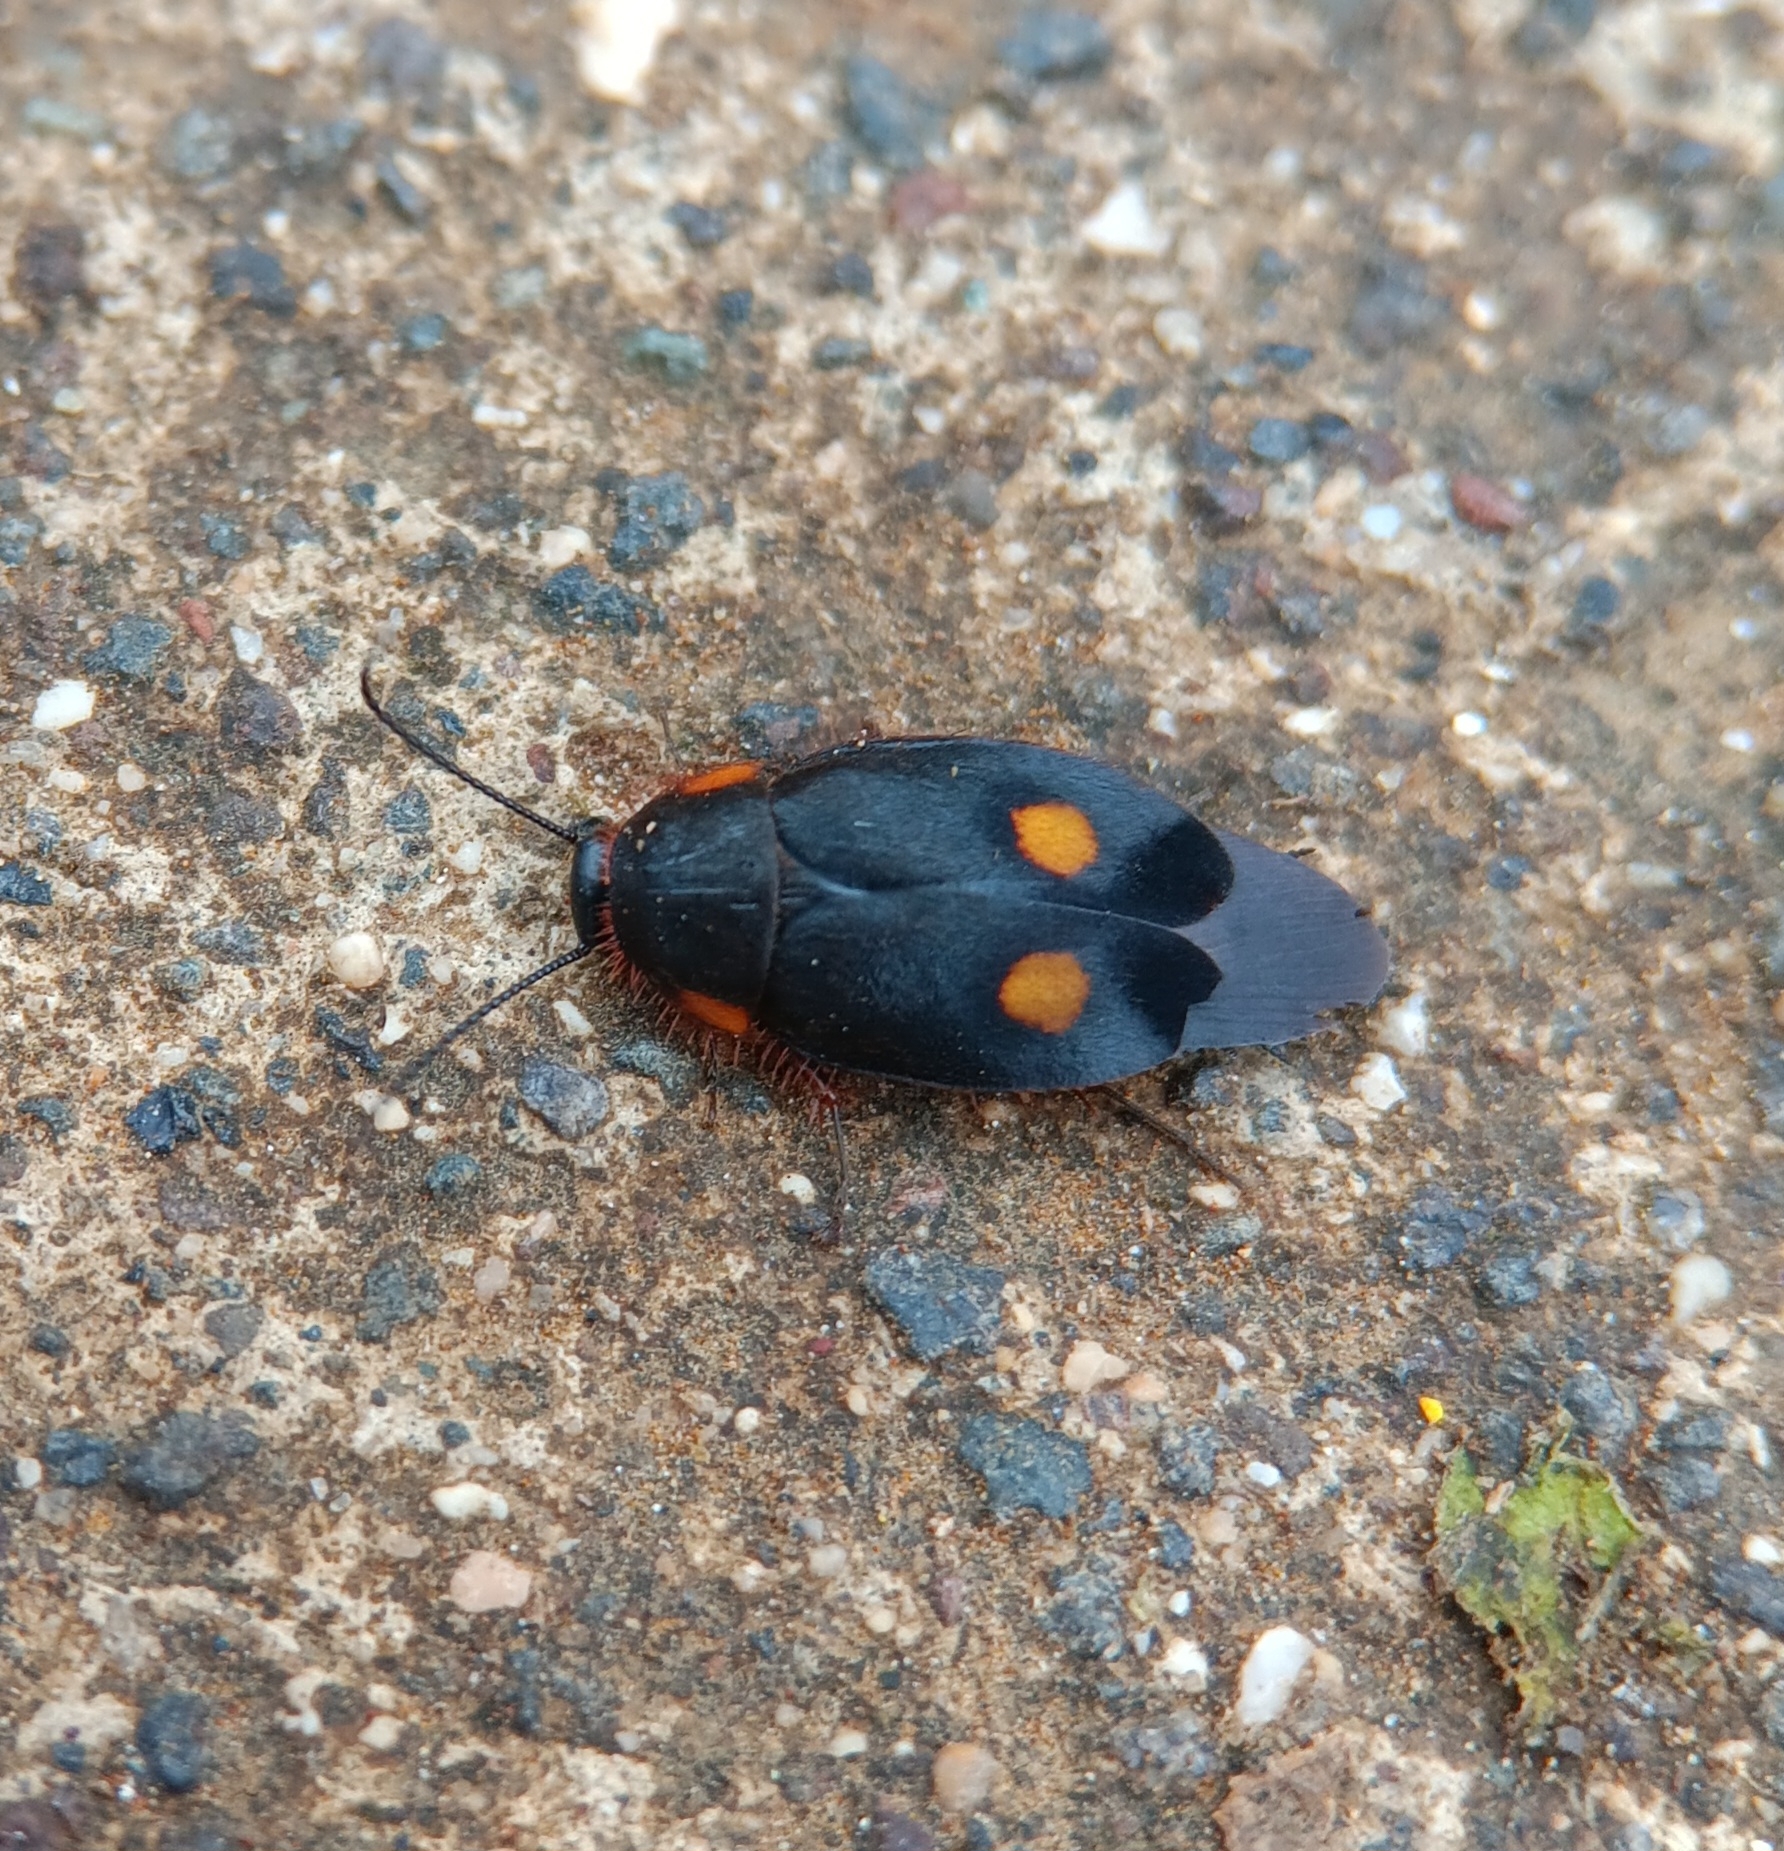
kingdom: Animalia
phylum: Arthropoda
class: Insecta
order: Blattodea
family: Corydiidae
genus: Euthyrrhapha
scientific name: Euthyrrhapha pacifica
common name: Pacific cockroach
